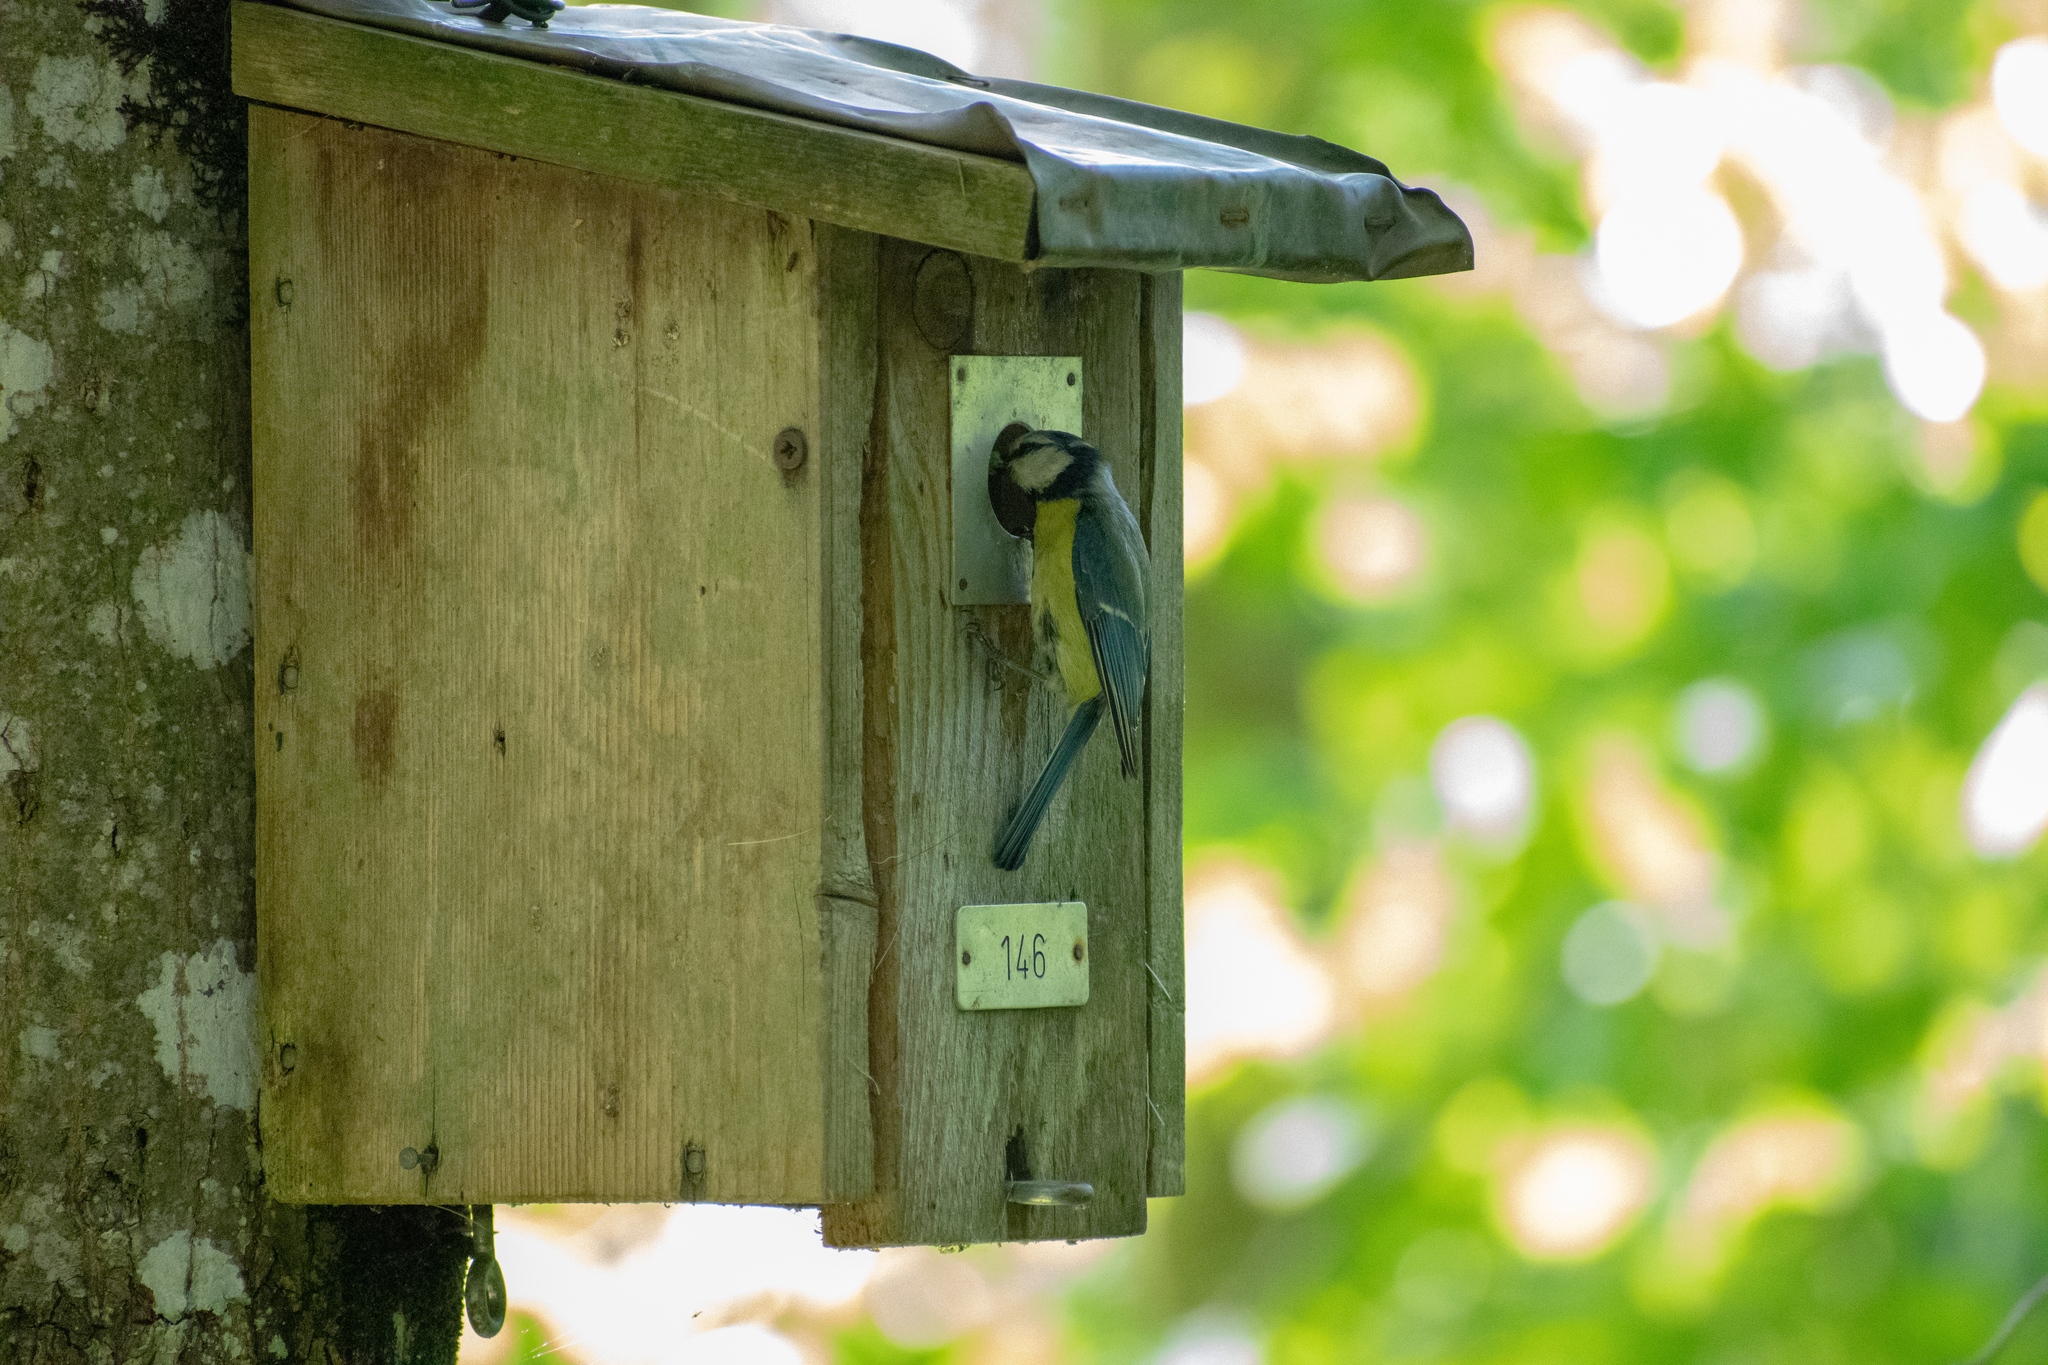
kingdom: Animalia
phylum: Chordata
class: Aves
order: Passeriformes
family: Paridae
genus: Cyanistes
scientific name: Cyanistes caeruleus
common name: Eurasian blue tit
